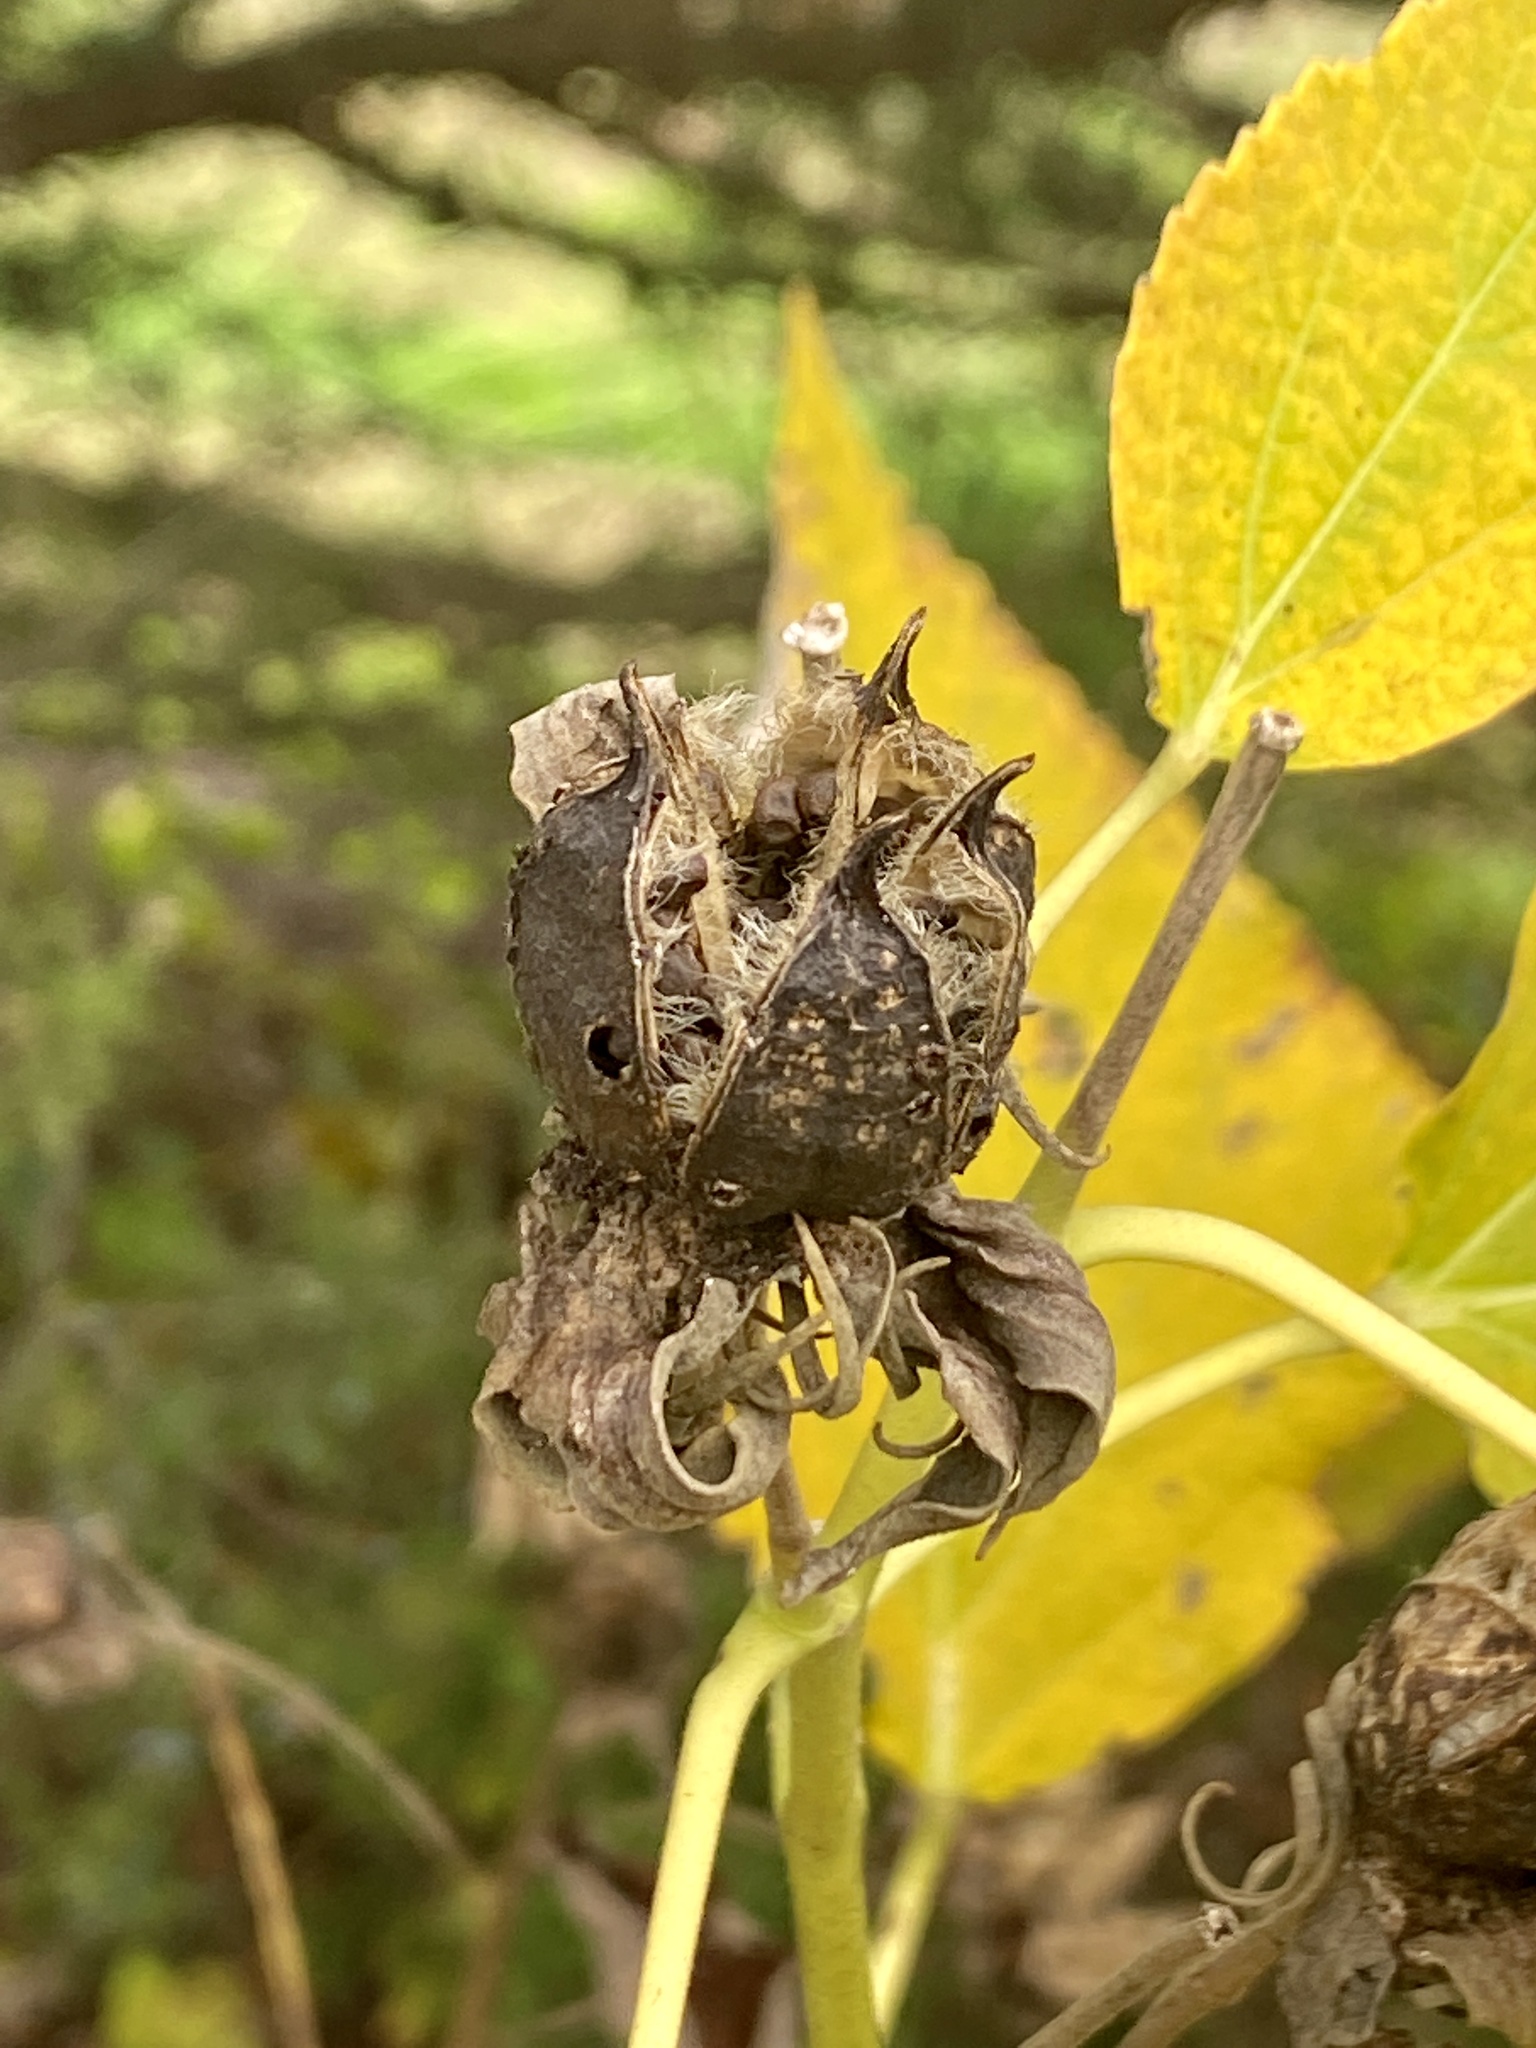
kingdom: Plantae
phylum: Tracheophyta
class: Magnoliopsida
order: Malvales
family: Malvaceae
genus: Hibiscus
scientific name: Hibiscus moscheutos
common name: Common rose-mallow
